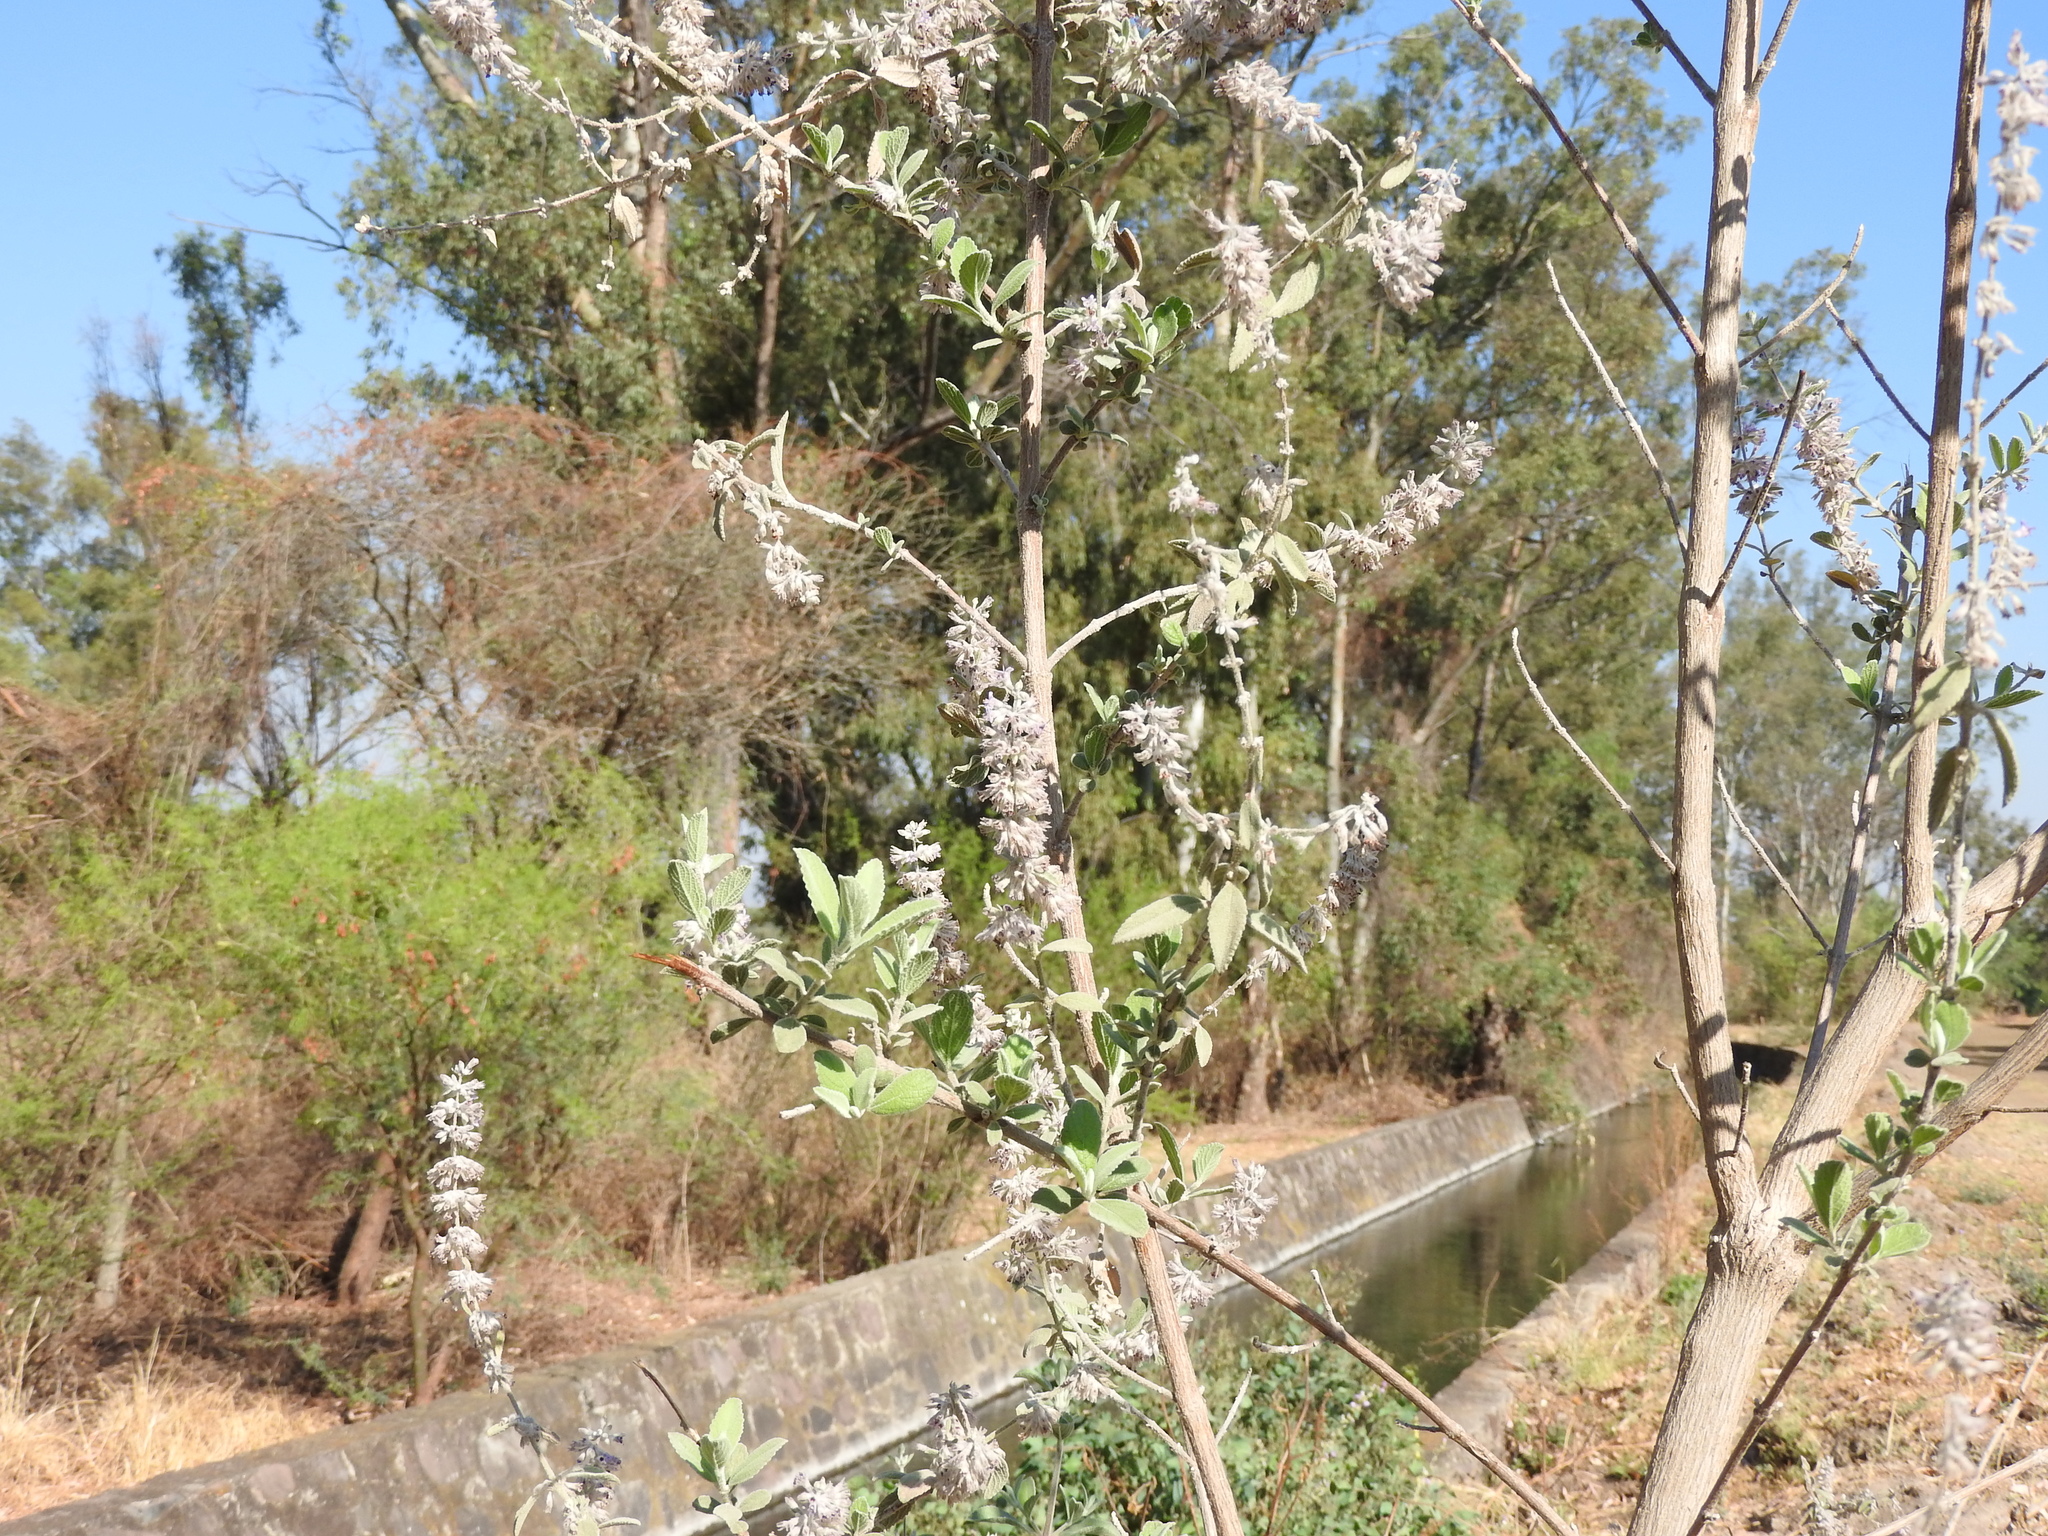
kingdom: Plantae
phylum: Tracheophyta
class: Magnoliopsida
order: Lamiales
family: Lamiaceae
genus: Condea
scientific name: Condea albida
